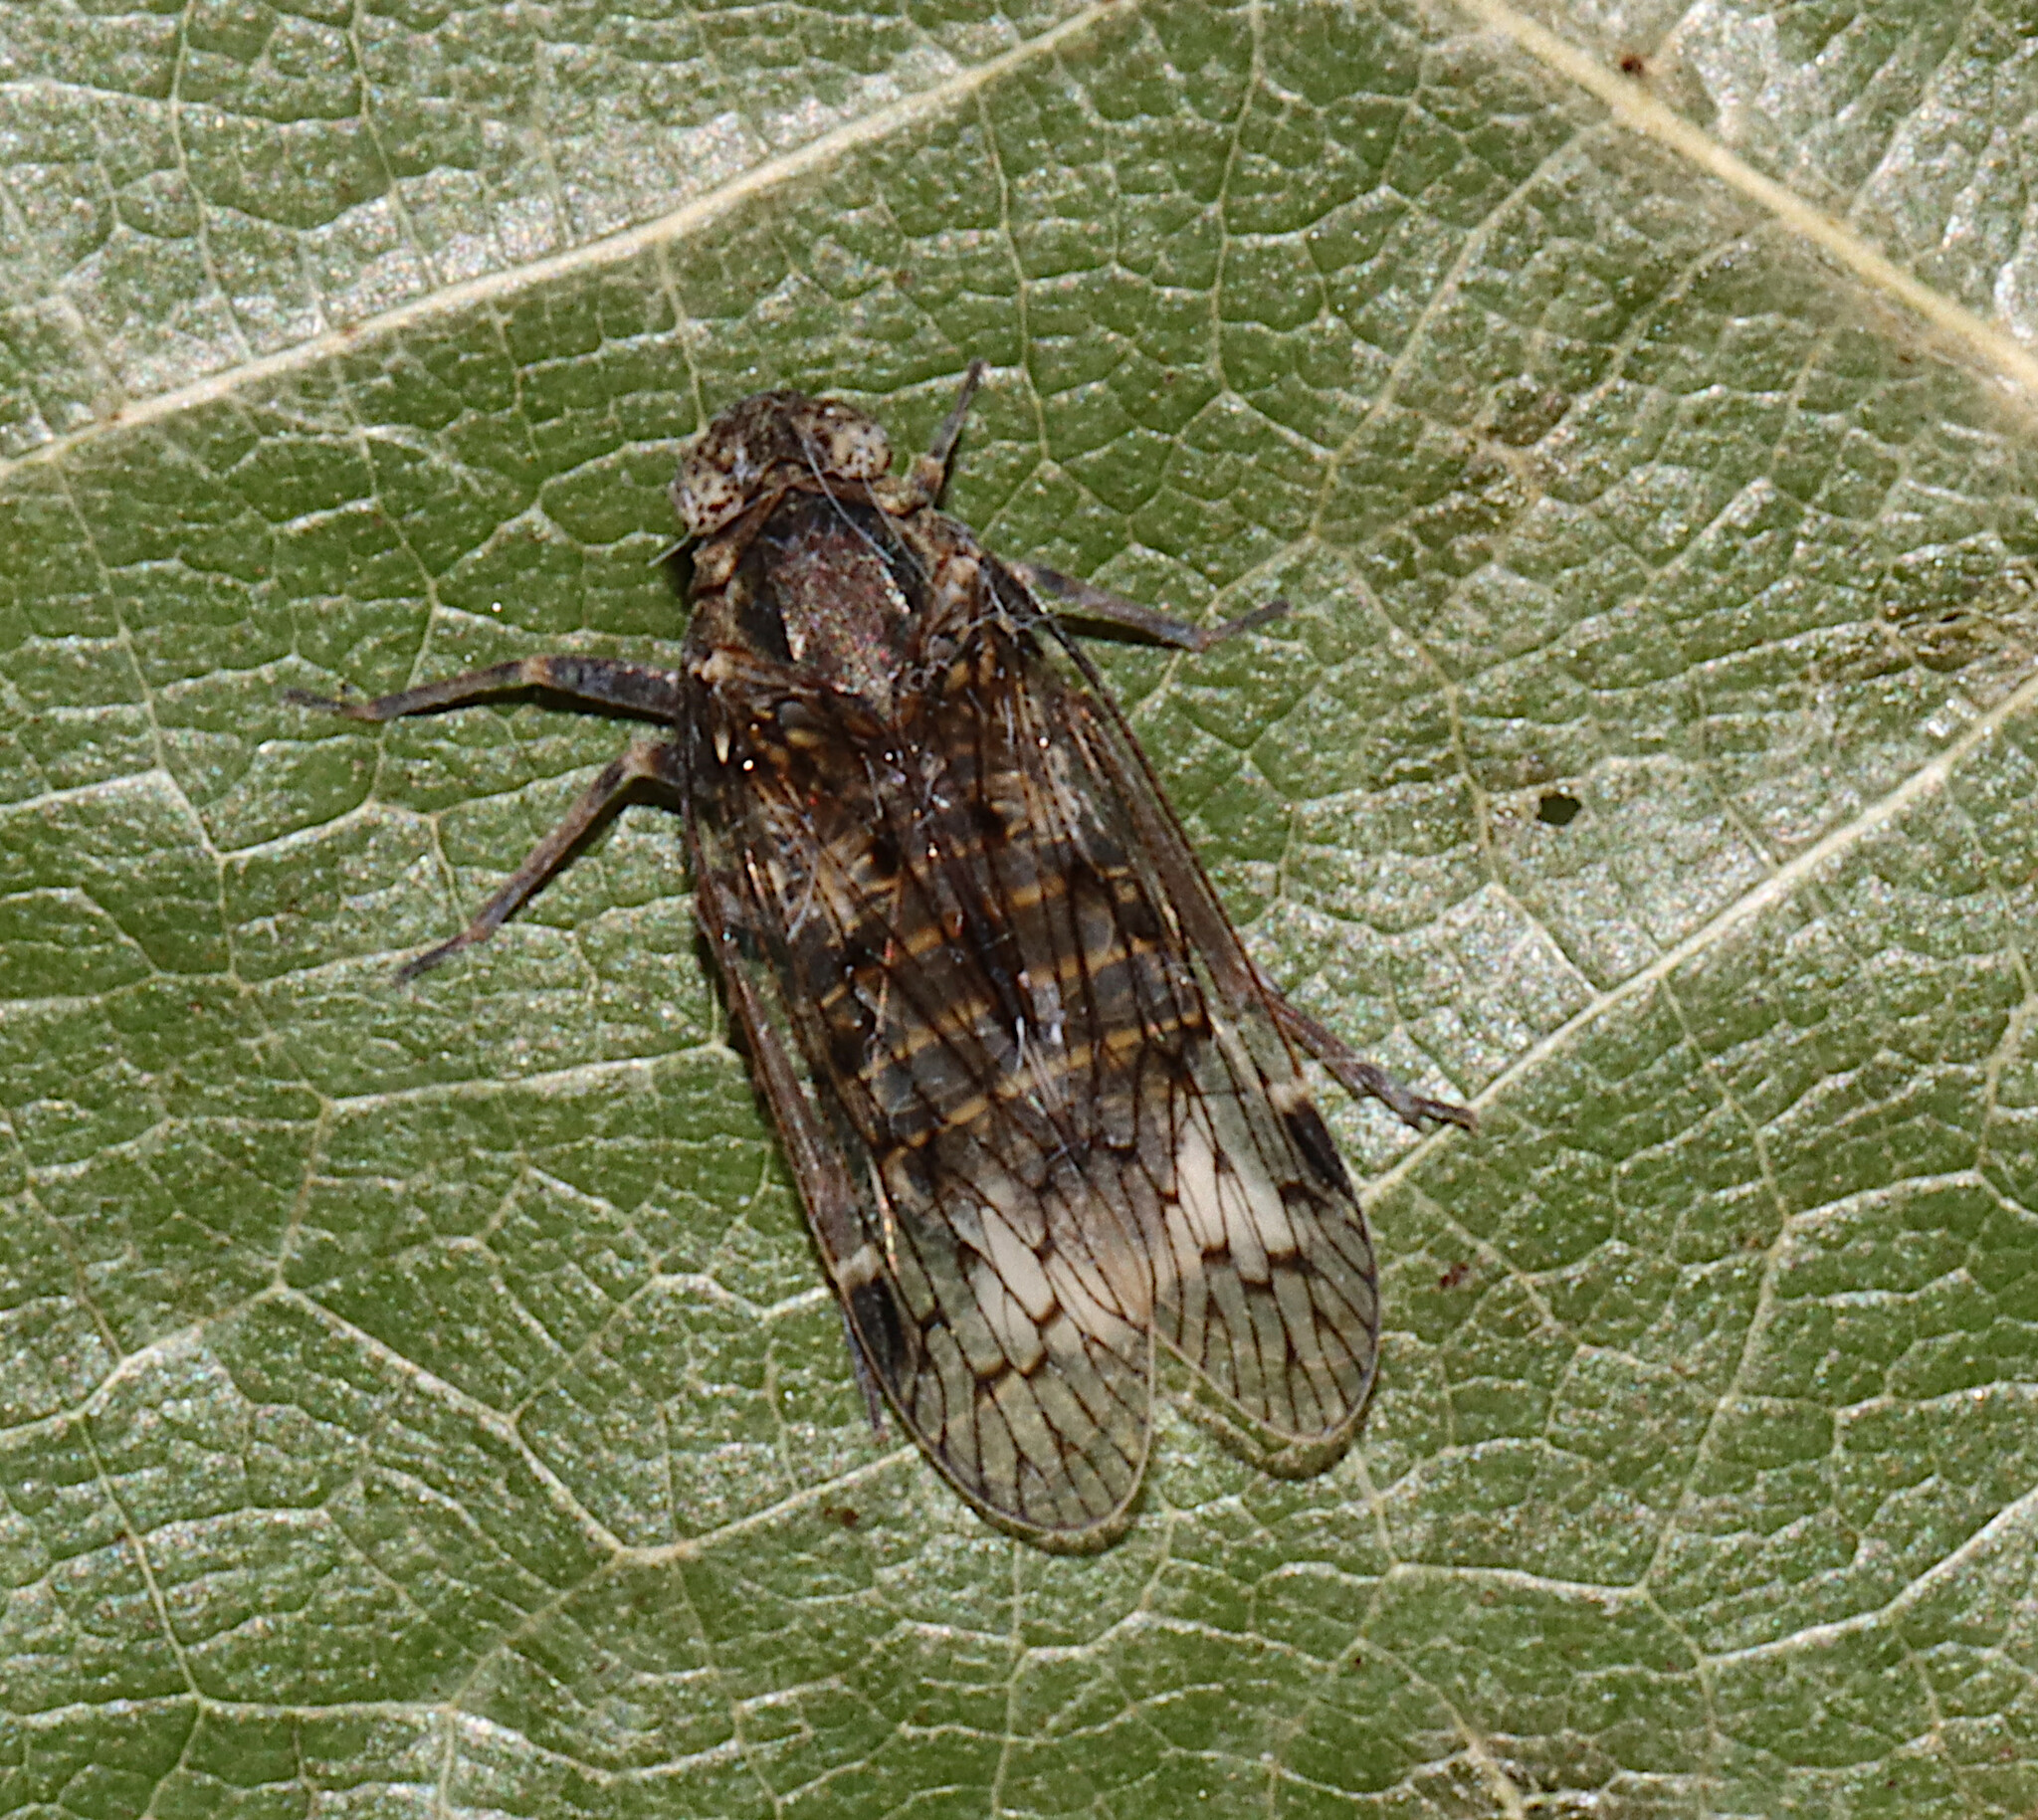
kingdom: Animalia
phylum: Arthropoda
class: Insecta
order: Hemiptera
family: Cixiidae
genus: Melanoliarus
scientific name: Melanoliarus aridus
